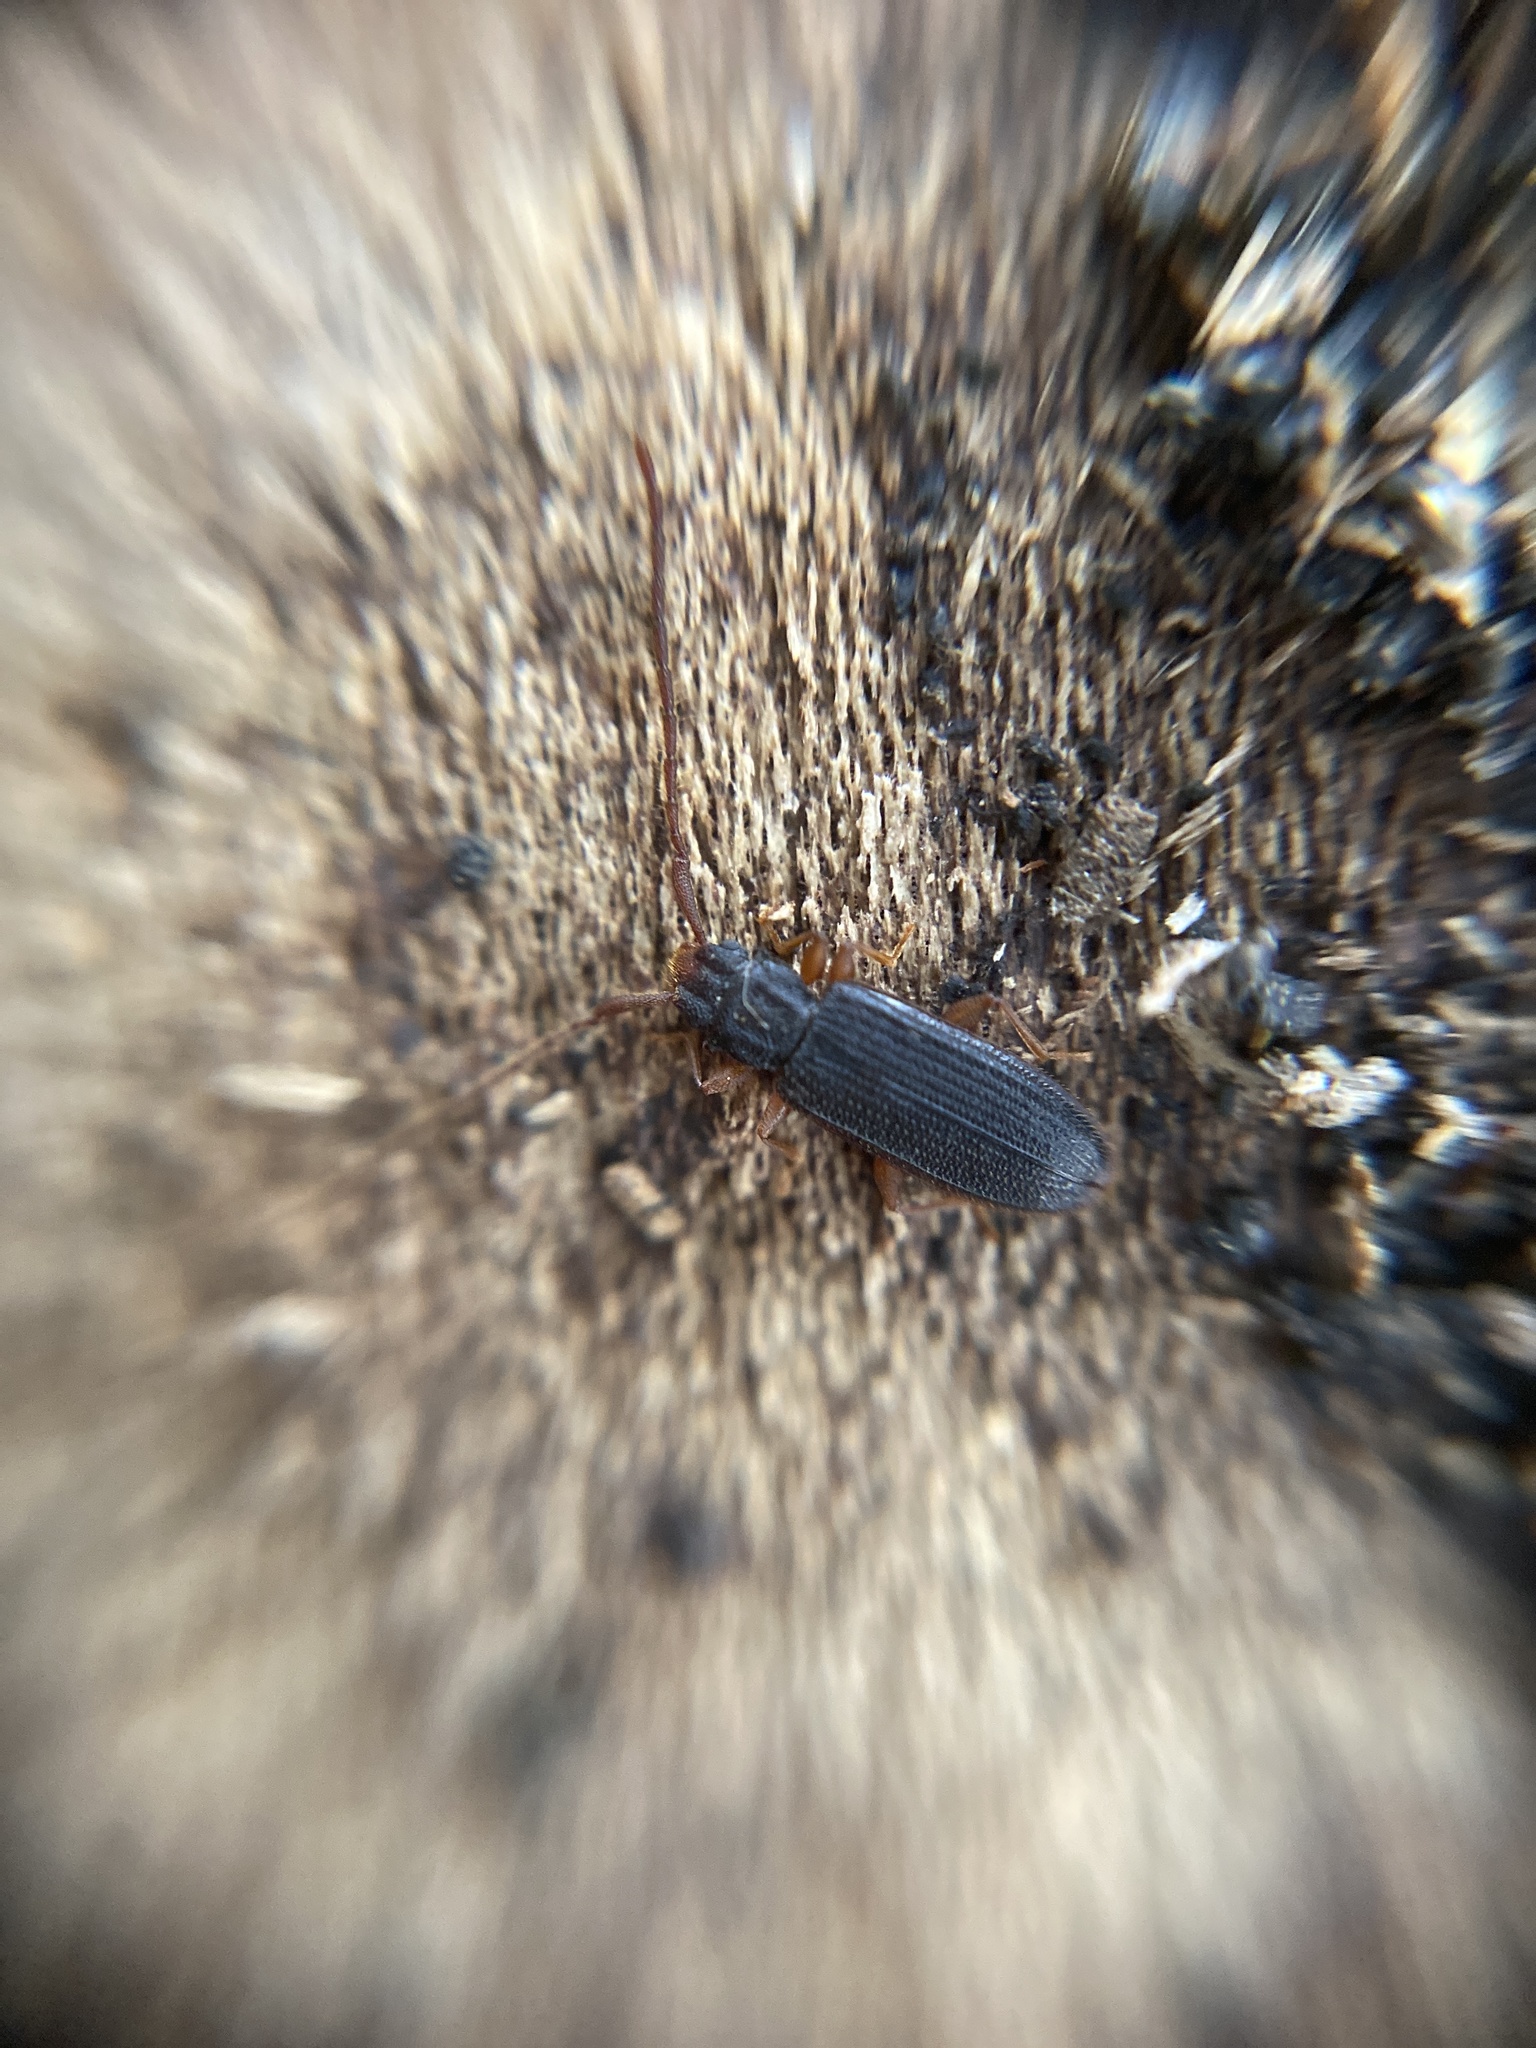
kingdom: Animalia
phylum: Arthropoda
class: Insecta
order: Coleoptera
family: Silvanidae
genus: Uleiota
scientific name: Uleiota planatus
